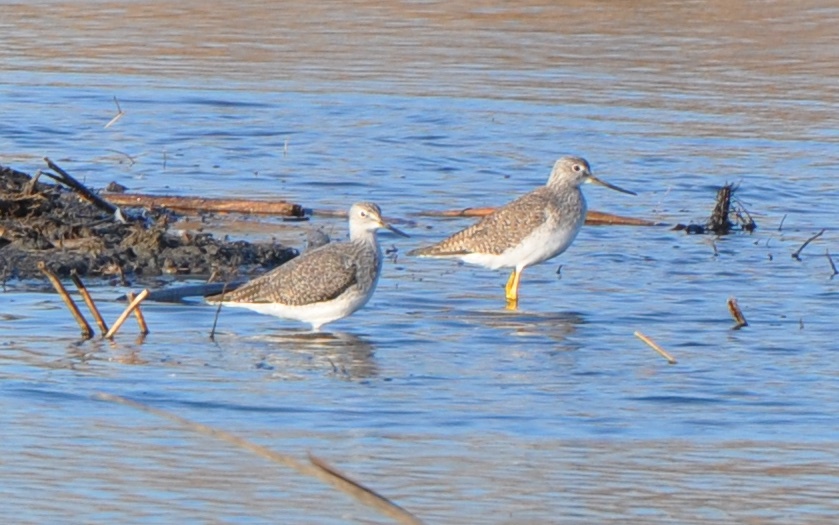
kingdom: Animalia
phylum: Chordata
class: Aves
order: Charadriiformes
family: Scolopacidae
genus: Tringa
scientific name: Tringa melanoleuca
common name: Greater yellowlegs
